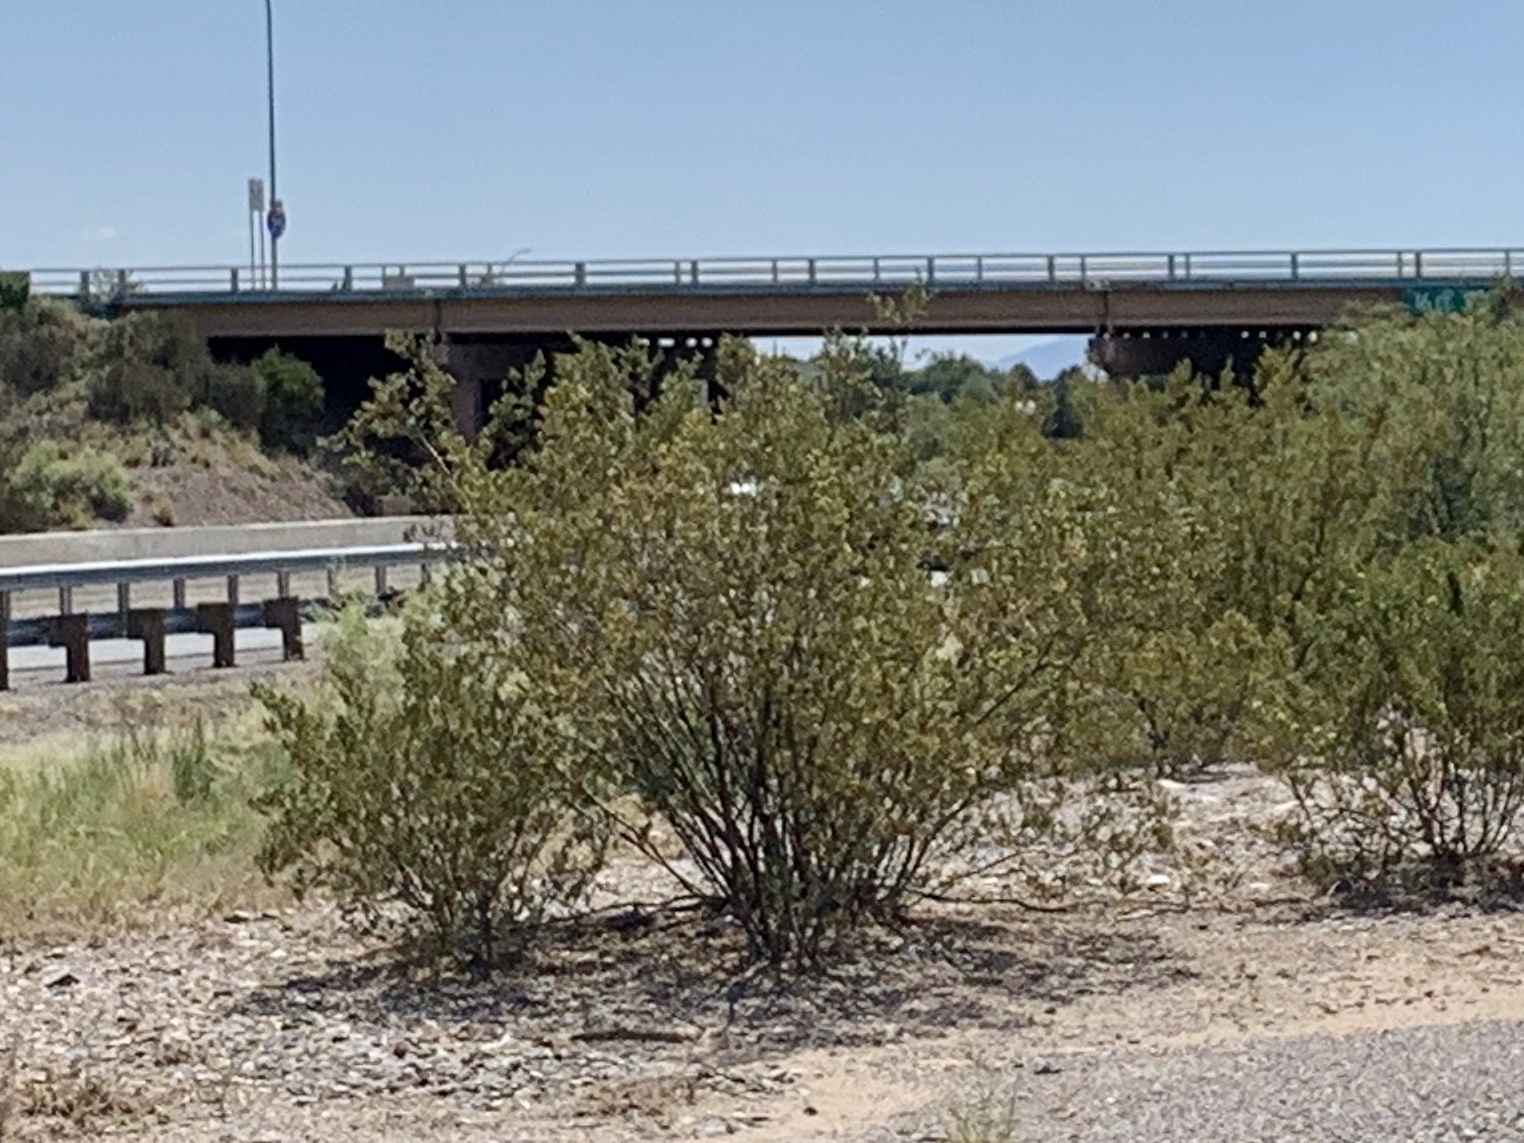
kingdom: Plantae
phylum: Tracheophyta
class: Magnoliopsida
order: Zygophyllales
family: Zygophyllaceae
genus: Larrea
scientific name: Larrea tridentata
